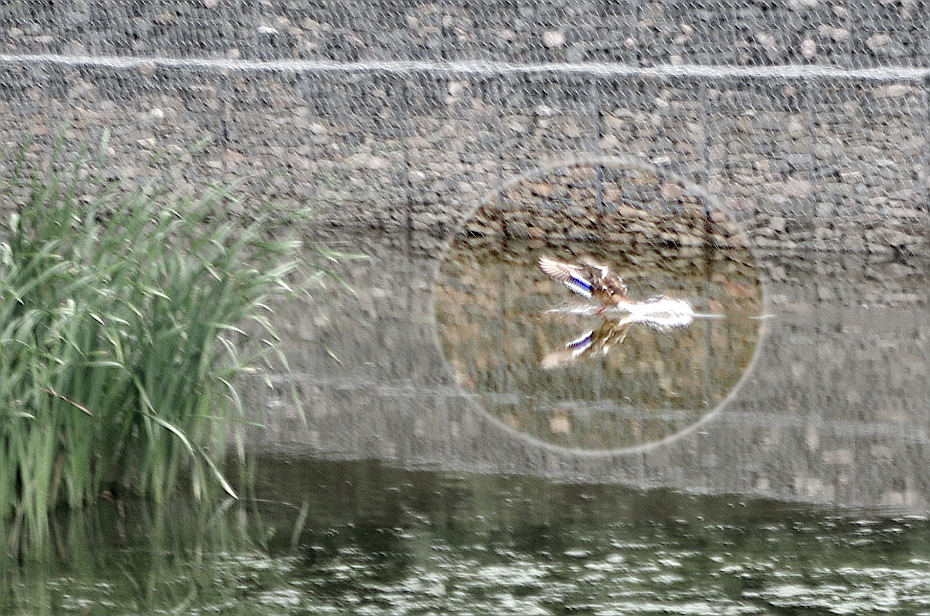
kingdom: Animalia
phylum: Chordata
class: Aves
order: Anseriformes
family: Anatidae
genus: Anas
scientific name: Anas platyrhynchos
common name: Mallard
